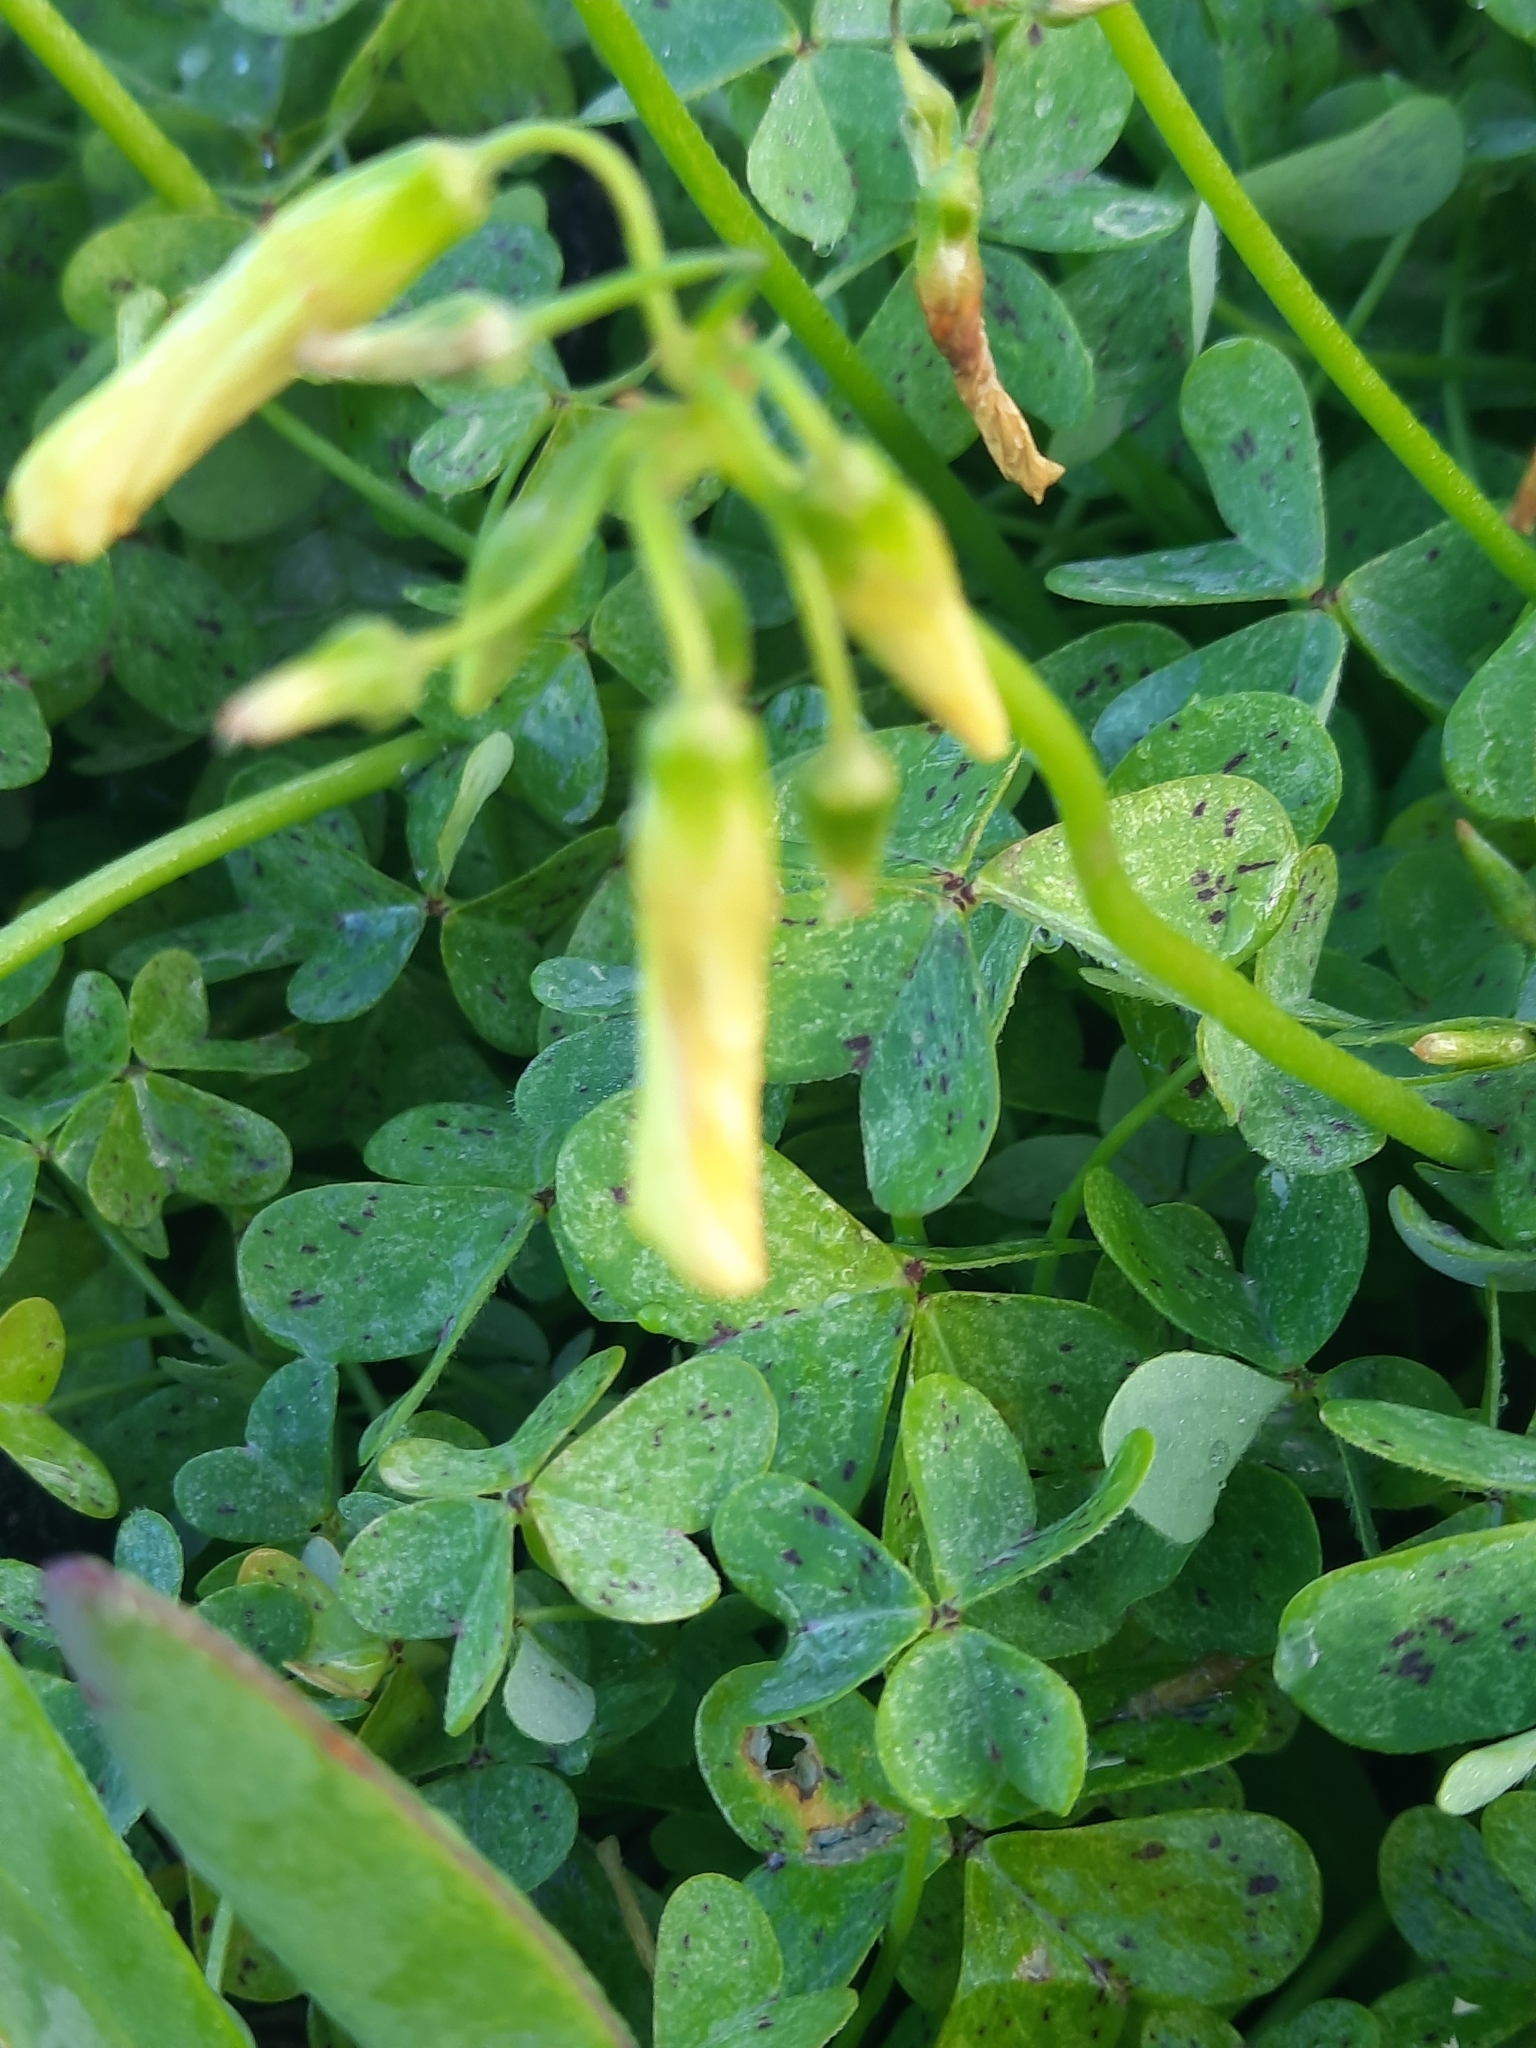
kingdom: Plantae
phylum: Tracheophyta
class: Magnoliopsida
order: Oxalidales
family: Oxalidaceae
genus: Oxalis
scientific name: Oxalis pes-caprae
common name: Bermuda-buttercup
